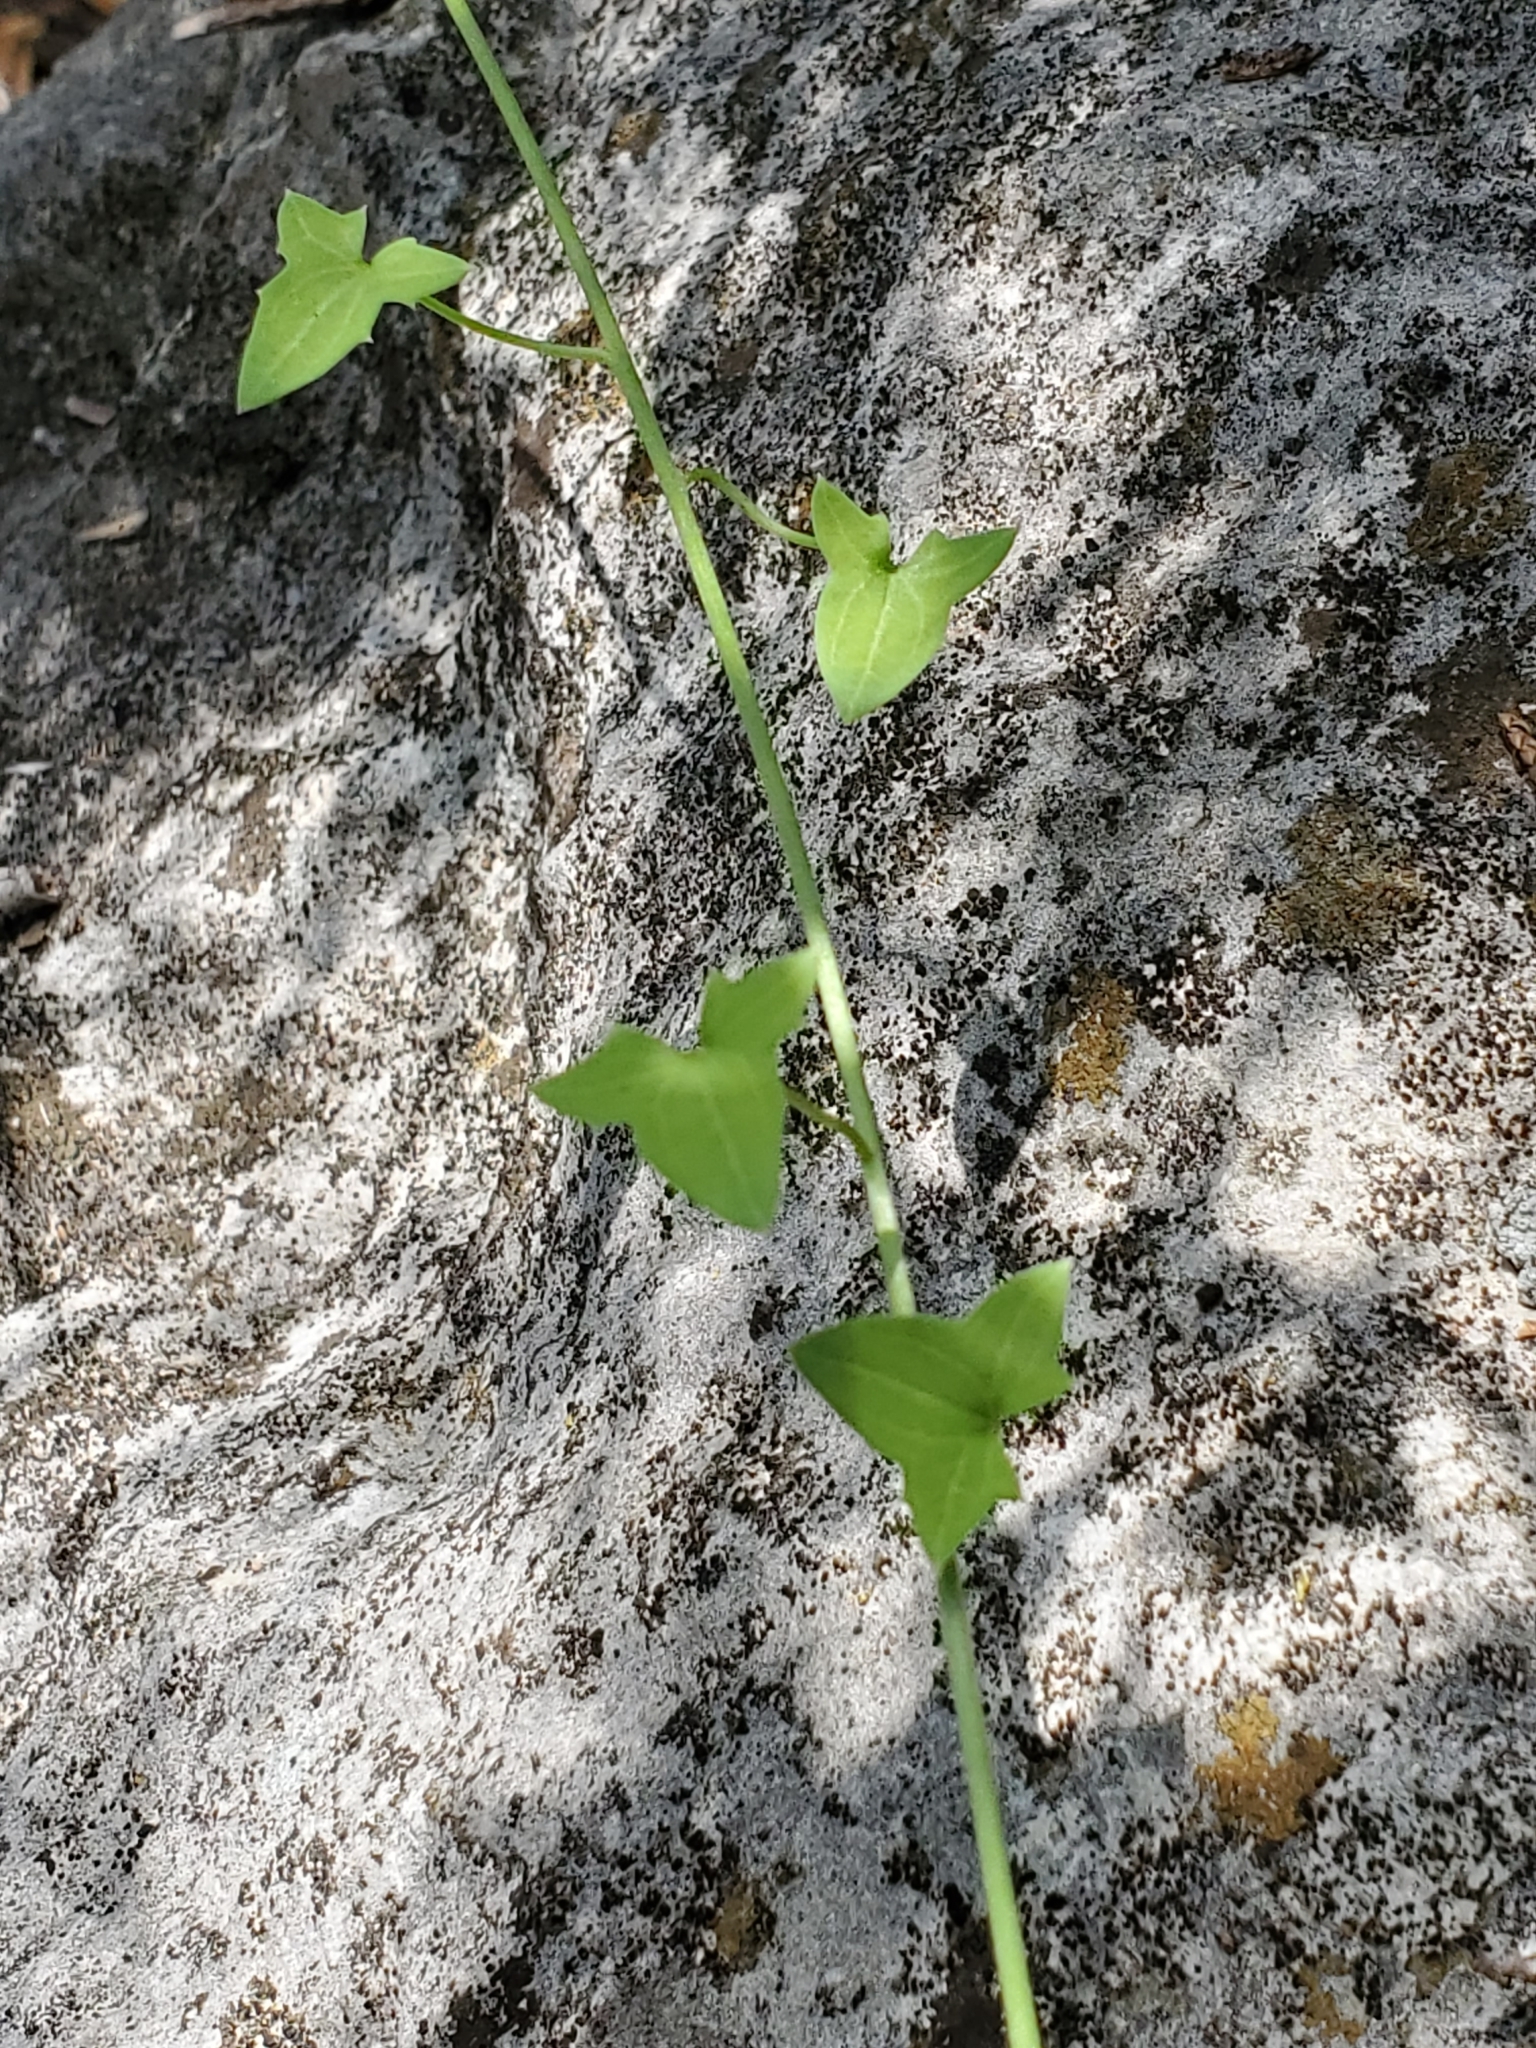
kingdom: Plantae
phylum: Tracheophyta
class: Magnoliopsida
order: Lamiales
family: Plantaginaceae
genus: Maurandella
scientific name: Maurandella antirrhiniflora
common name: Violet twining-snapdragon
